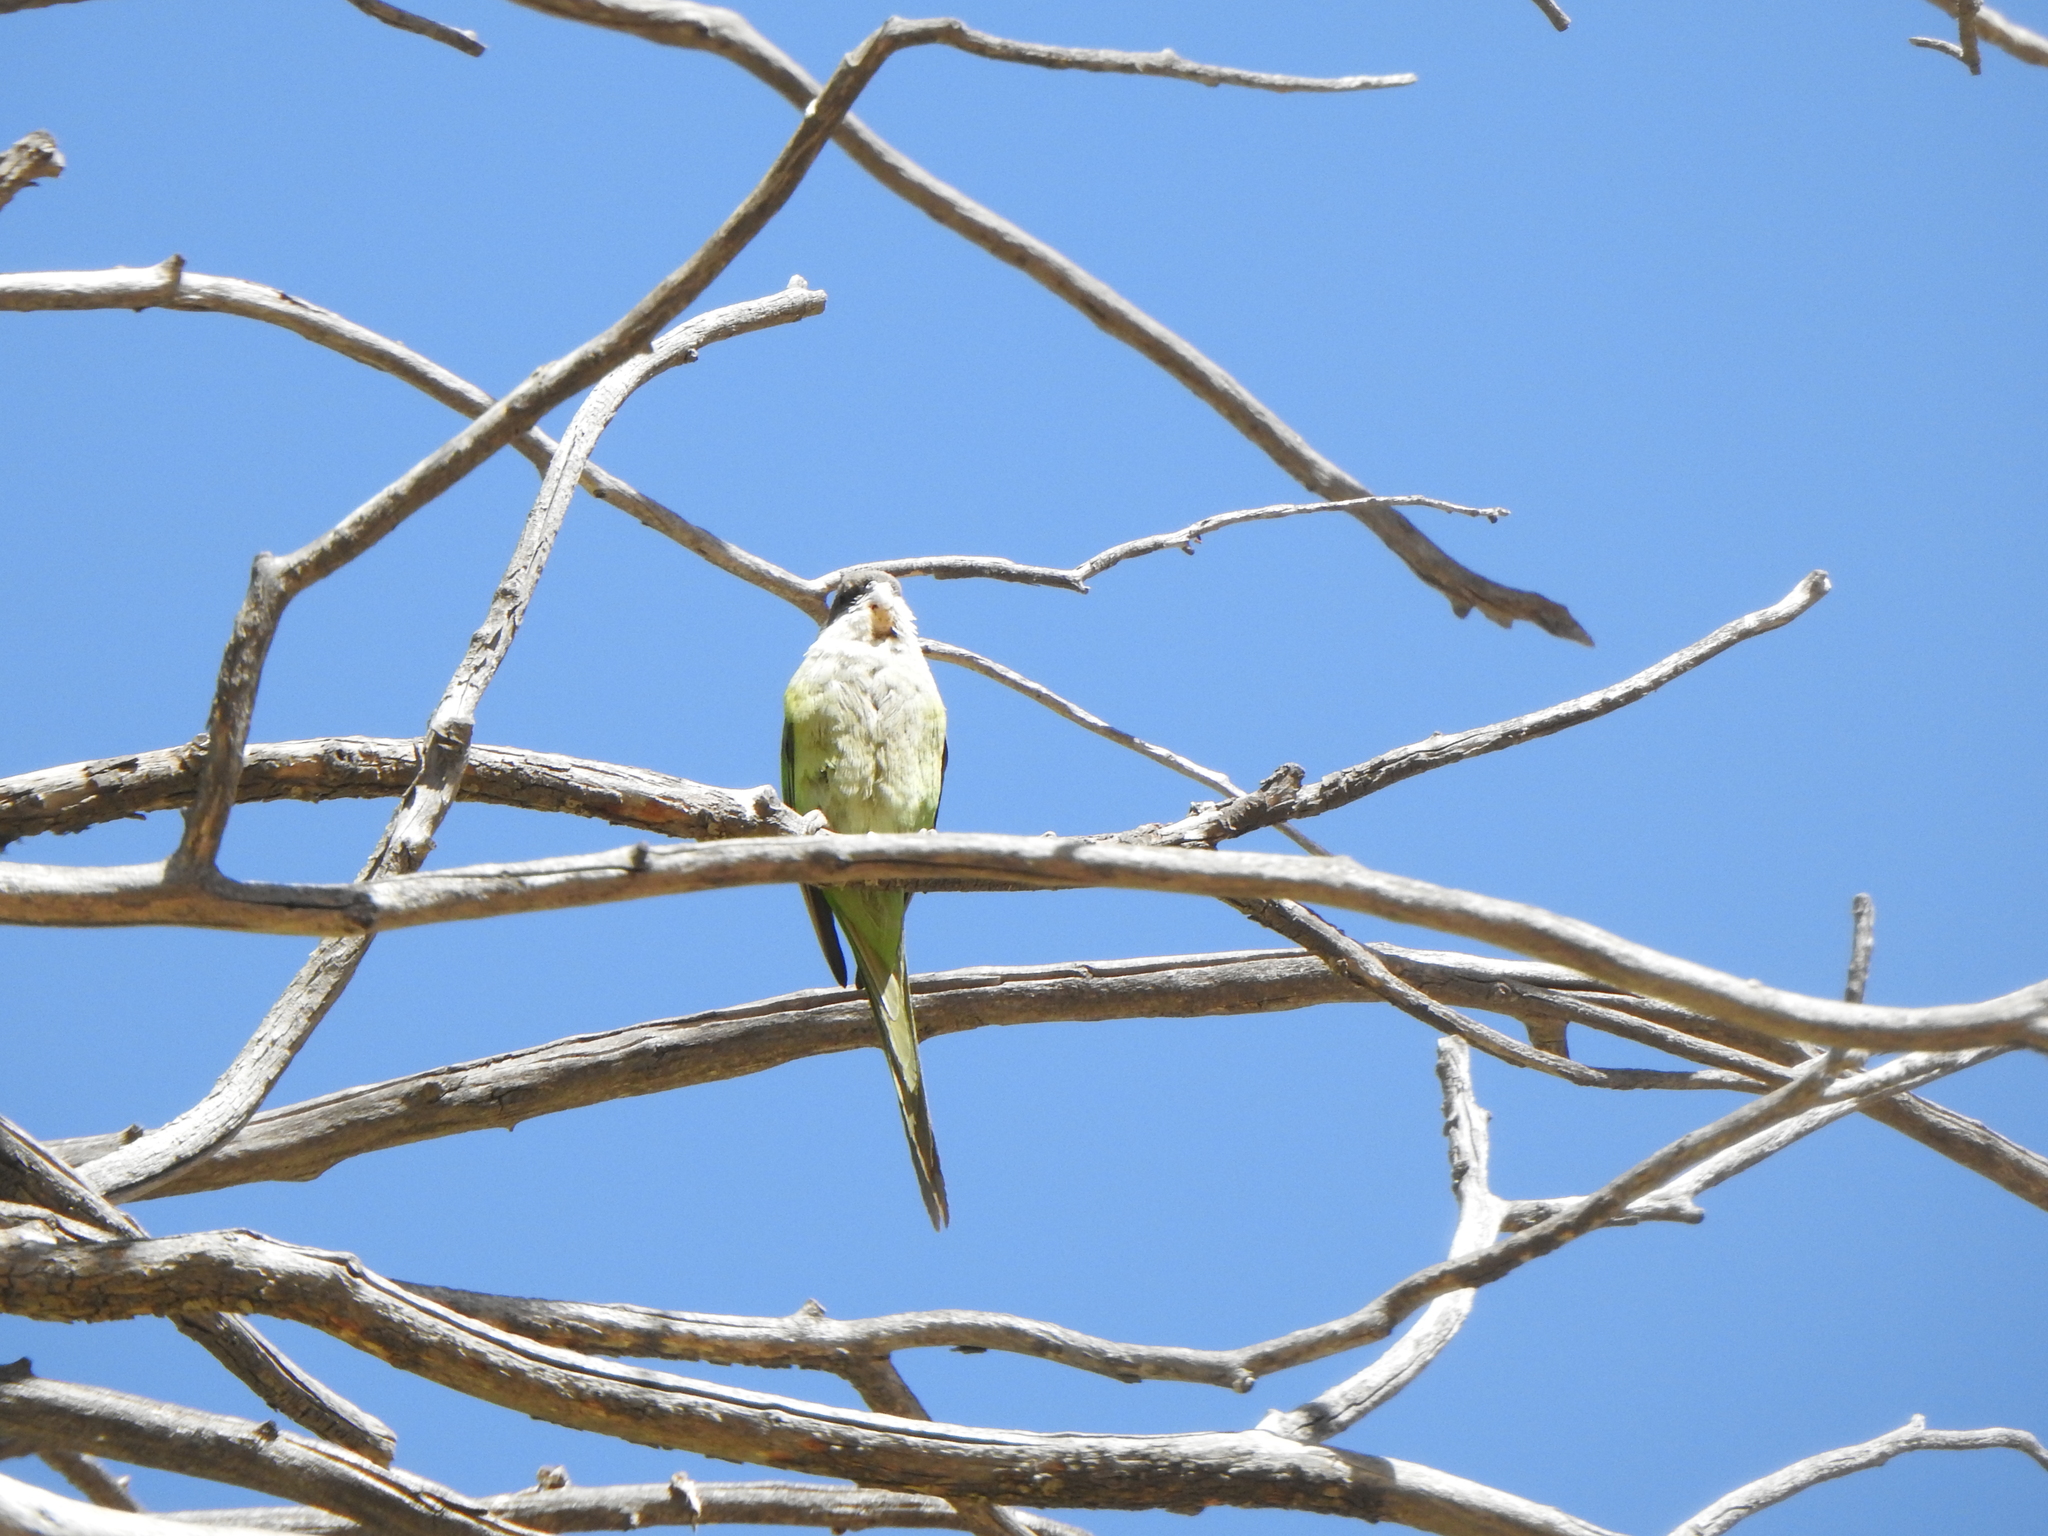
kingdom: Animalia
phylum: Chordata
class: Aves
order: Psittaciformes
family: Psittacidae
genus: Psilopsiagon
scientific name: Psilopsiagon aymara
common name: Grey-hooded parakeet
